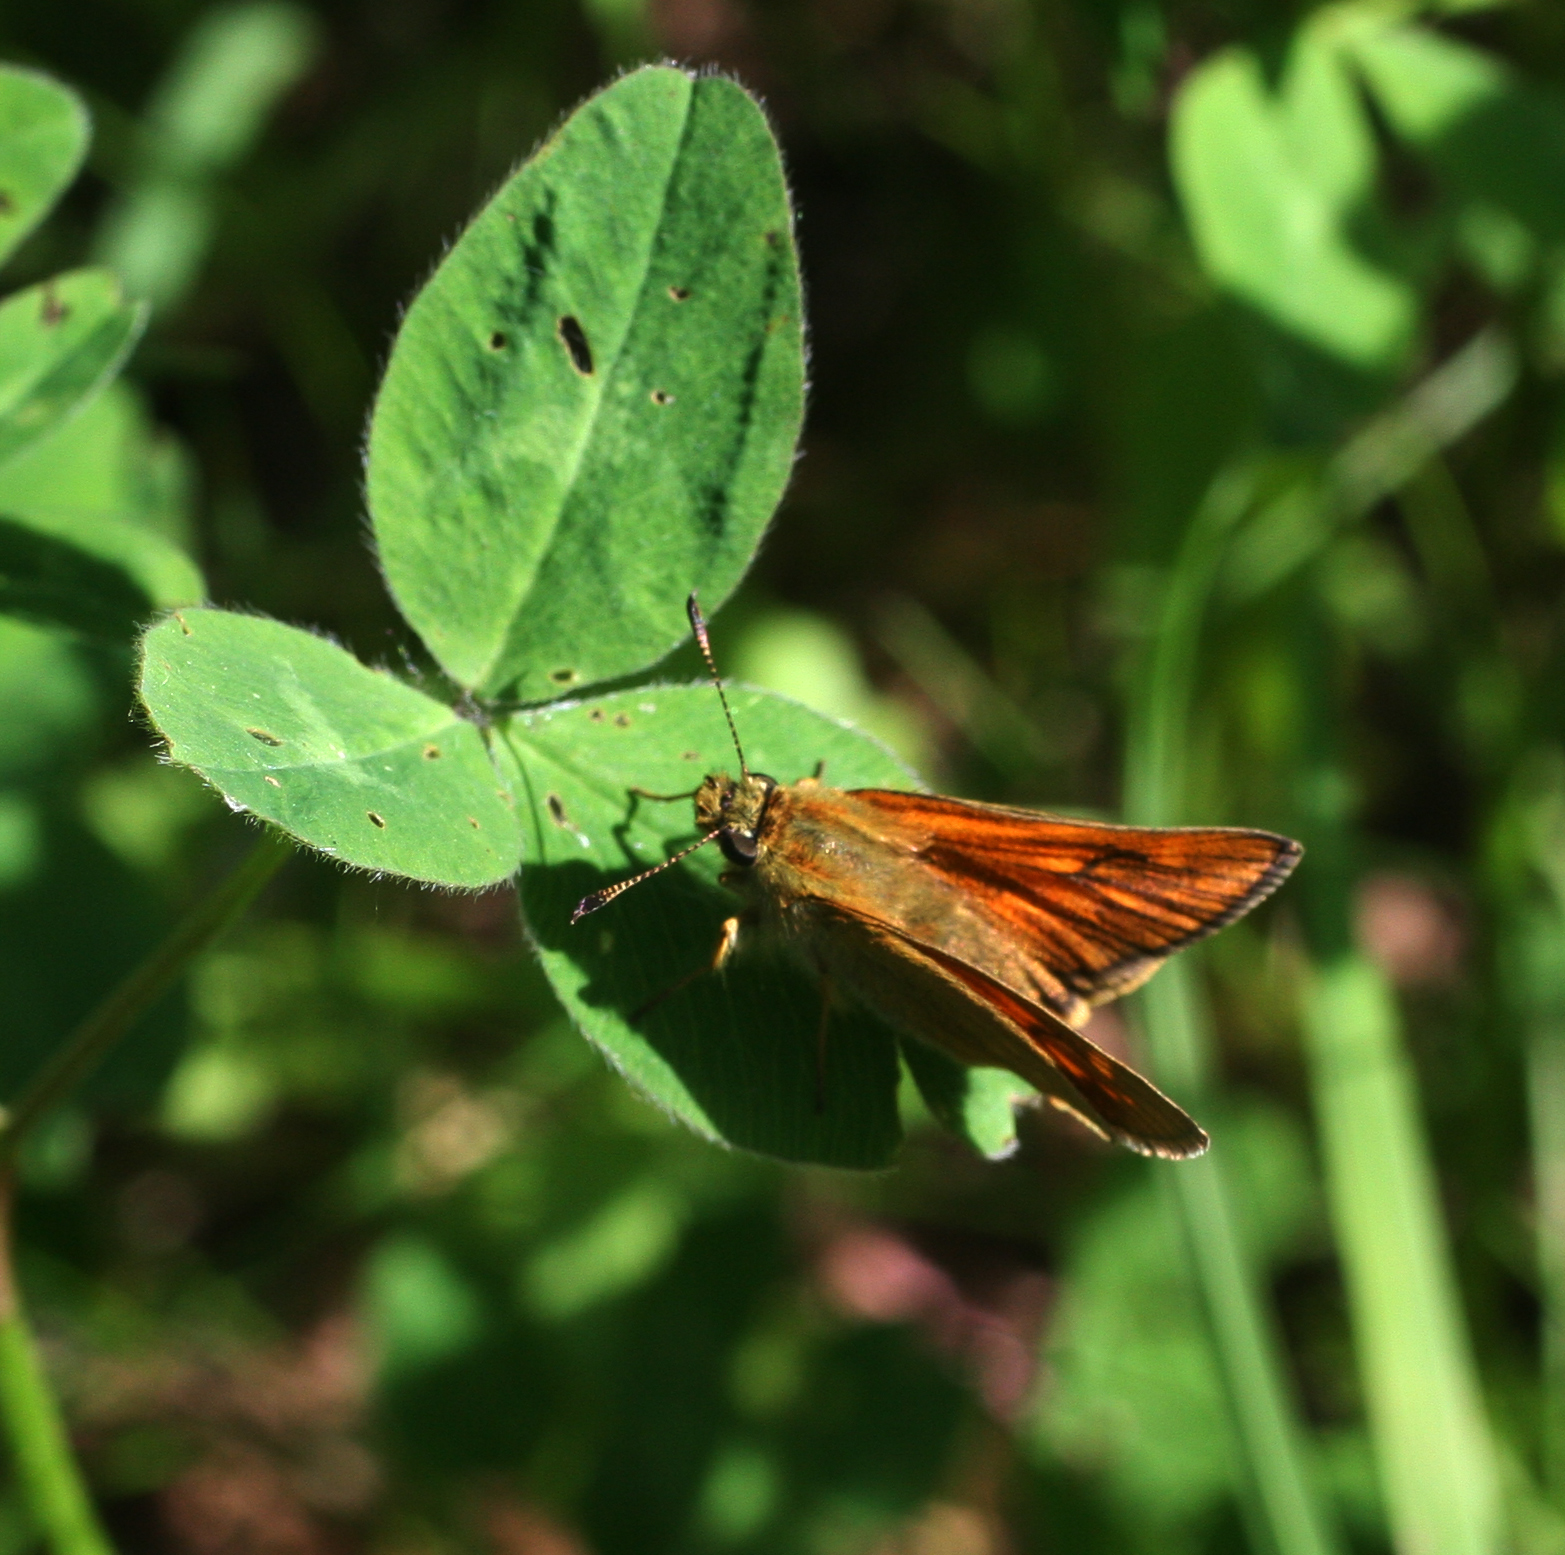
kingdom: Animalia
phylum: Arthropoda
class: Insecta
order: Lepidoptera
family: Hesperiidae
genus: Ochlodes
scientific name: Ochlodes venata
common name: Large skipper
